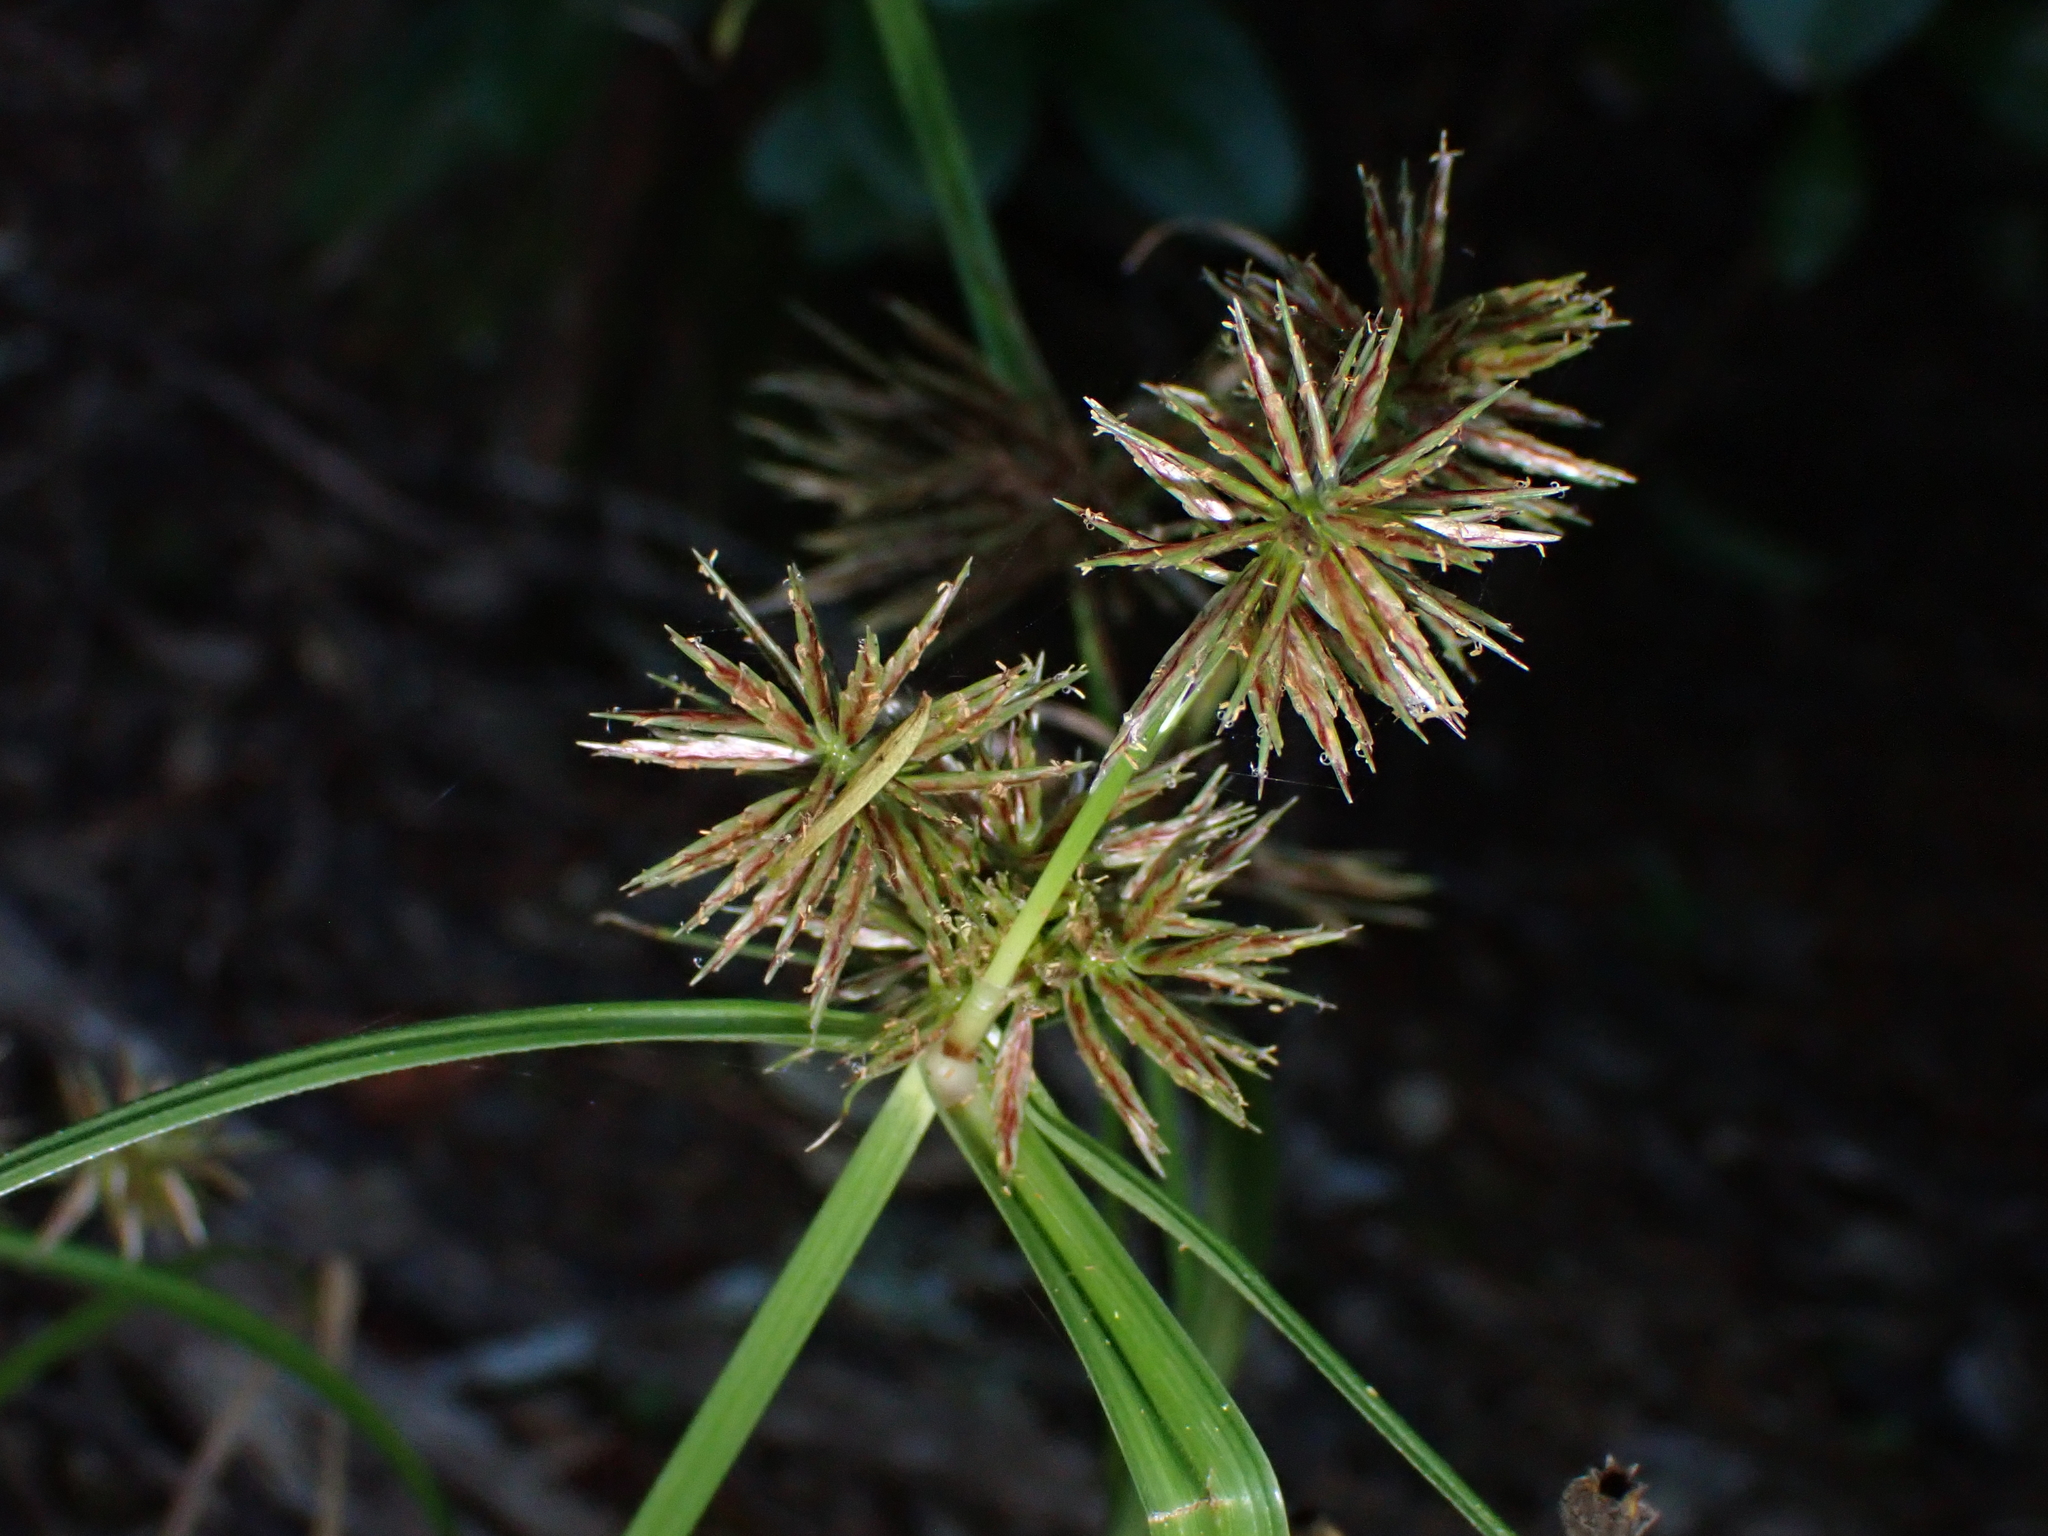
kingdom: Plantae
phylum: Tracheophyta
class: Liliopsida
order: Poales
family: Cyperaceae
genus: Cyperus
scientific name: Cyperus congestus
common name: Dense flat sedge
